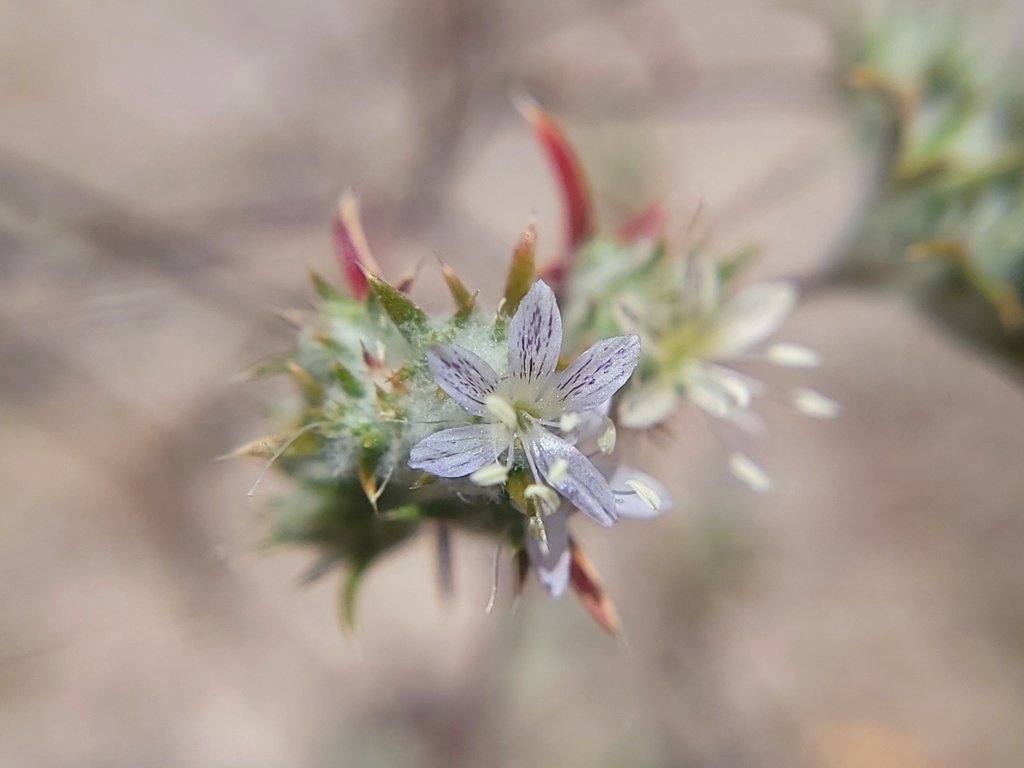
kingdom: Plantae
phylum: Tracheophyta
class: Magnoliopsida
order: Ericales
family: Polemoniaceae
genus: Eriastrum
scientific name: Eriastrum sapphirinum
